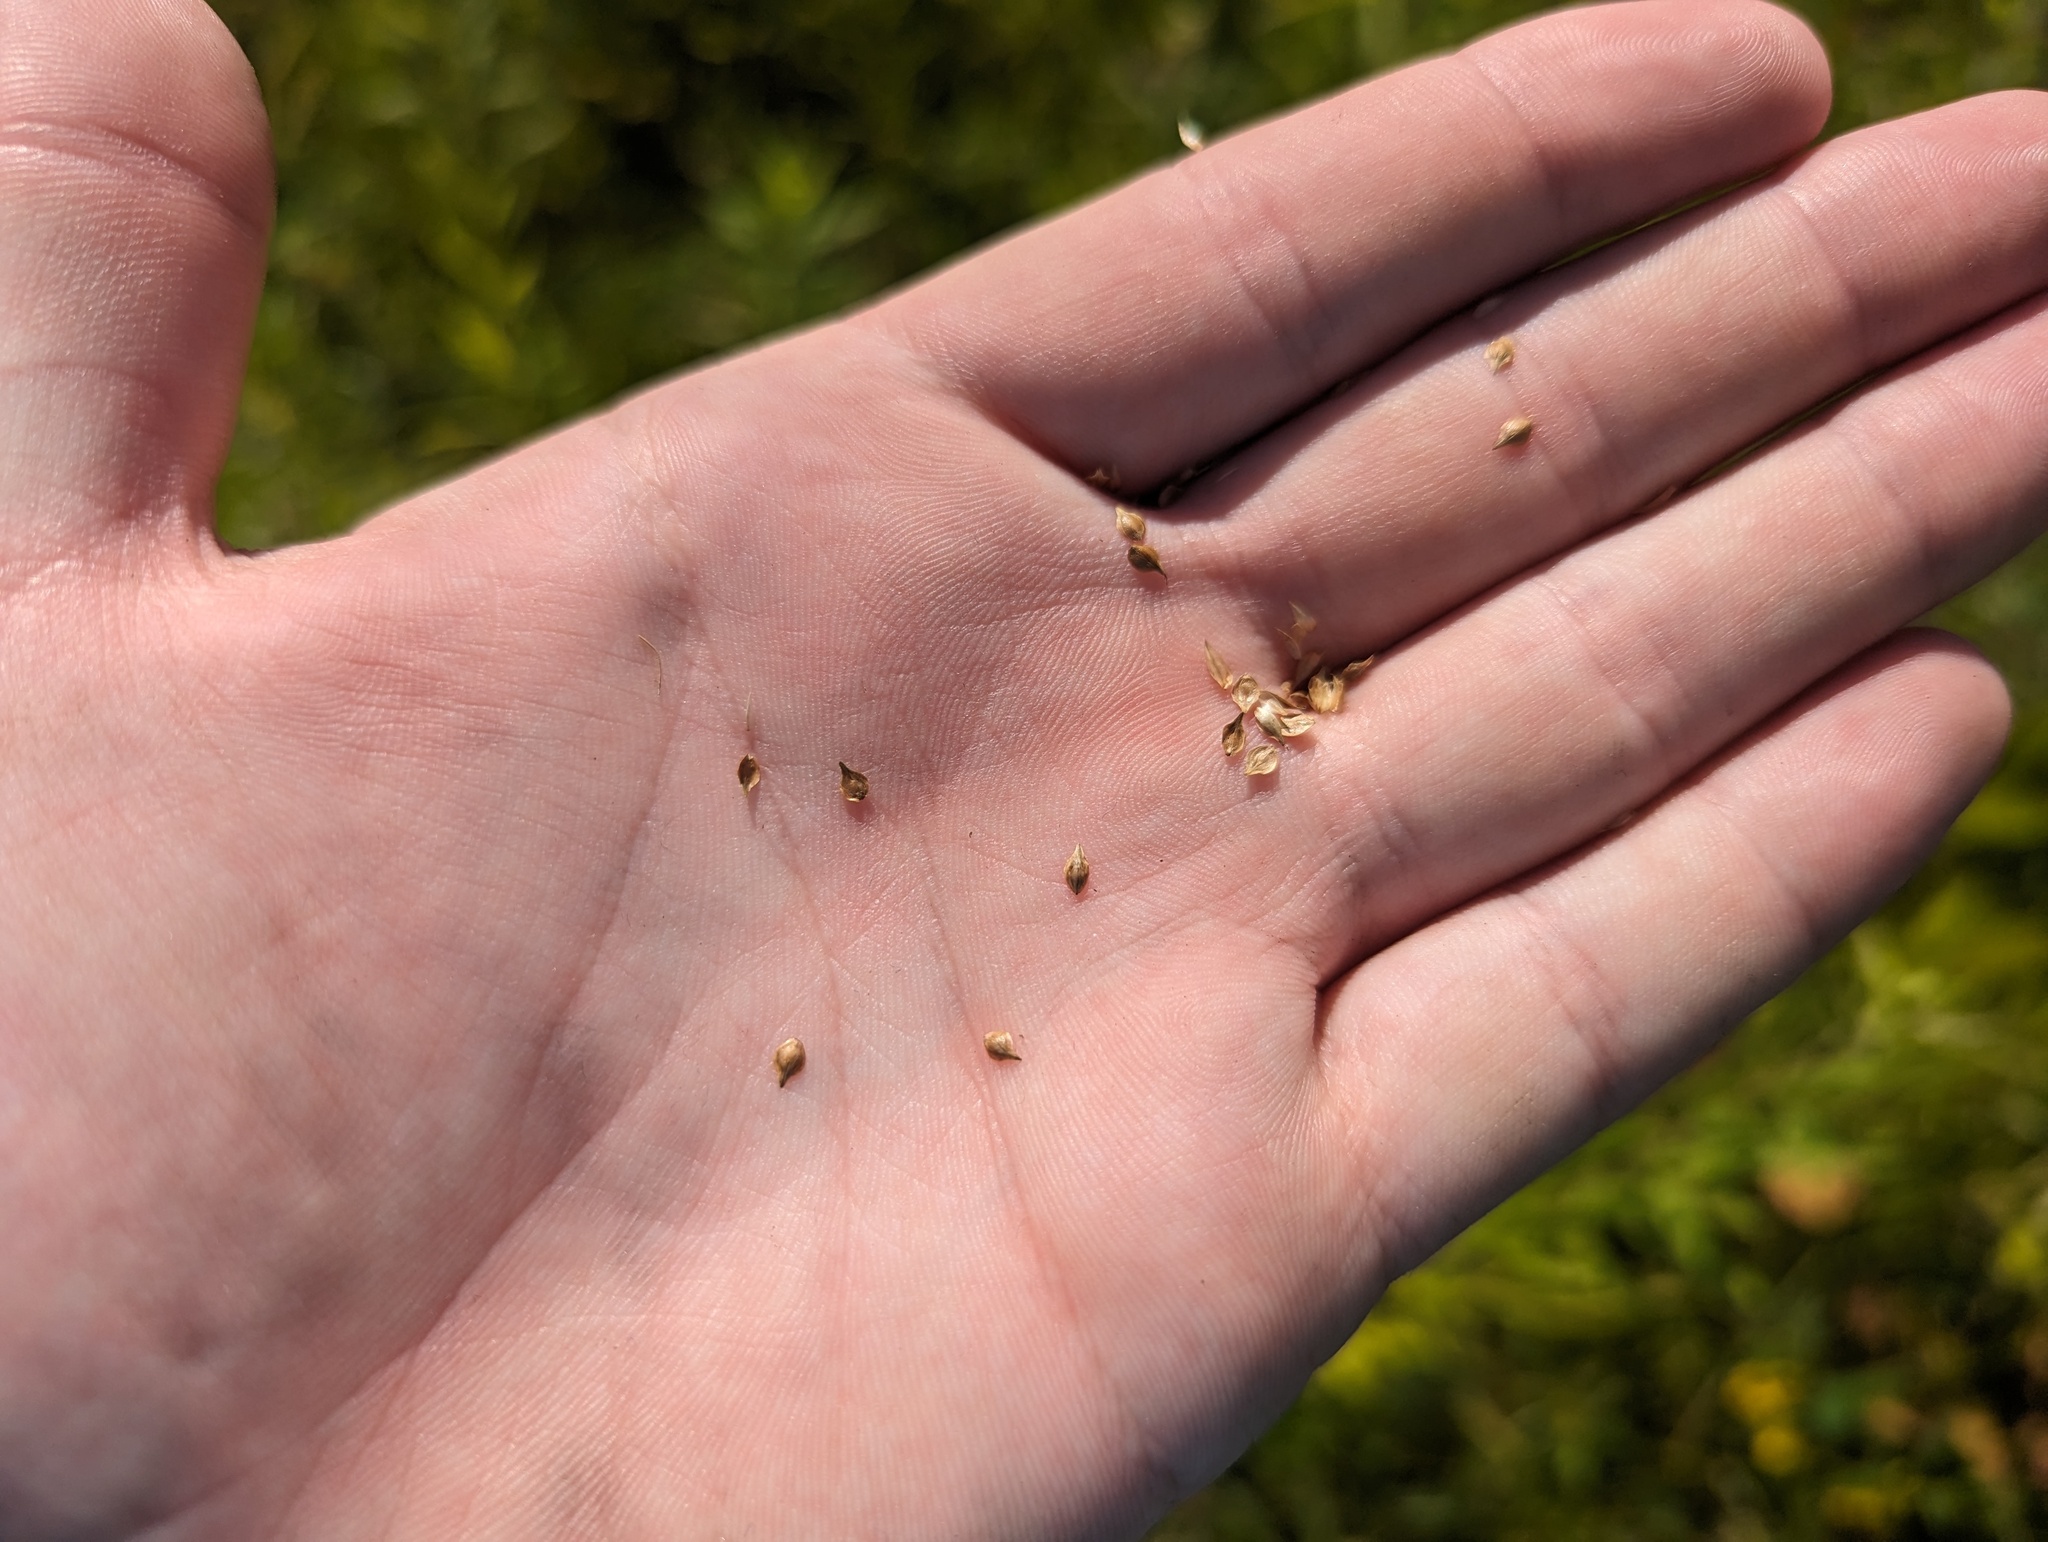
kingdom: Plantae
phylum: Tracheophyta
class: Liliopsida
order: Poales
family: Cyperaceae
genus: Carex
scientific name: Carex longii
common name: Long's sedge
